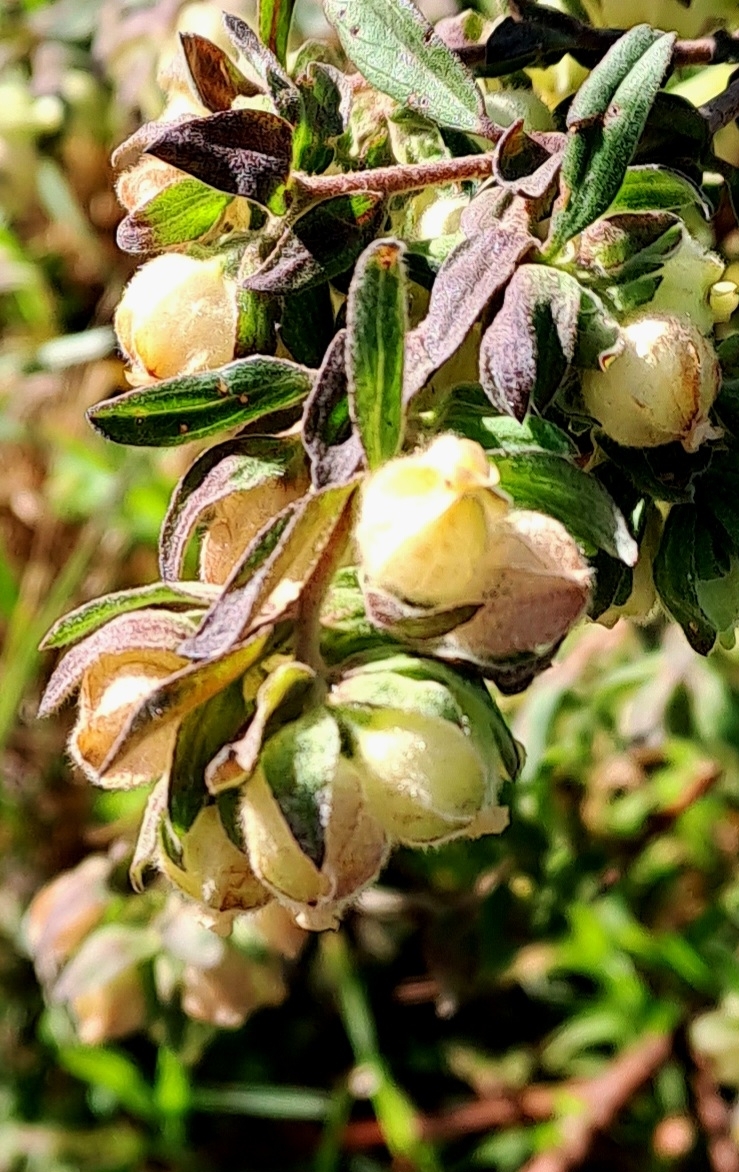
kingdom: Plantae
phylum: Tracheophyta
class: Magnoliopsida
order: Malvales
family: Malvaceae
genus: Hermannia
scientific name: Hermannia hyssopifolia
